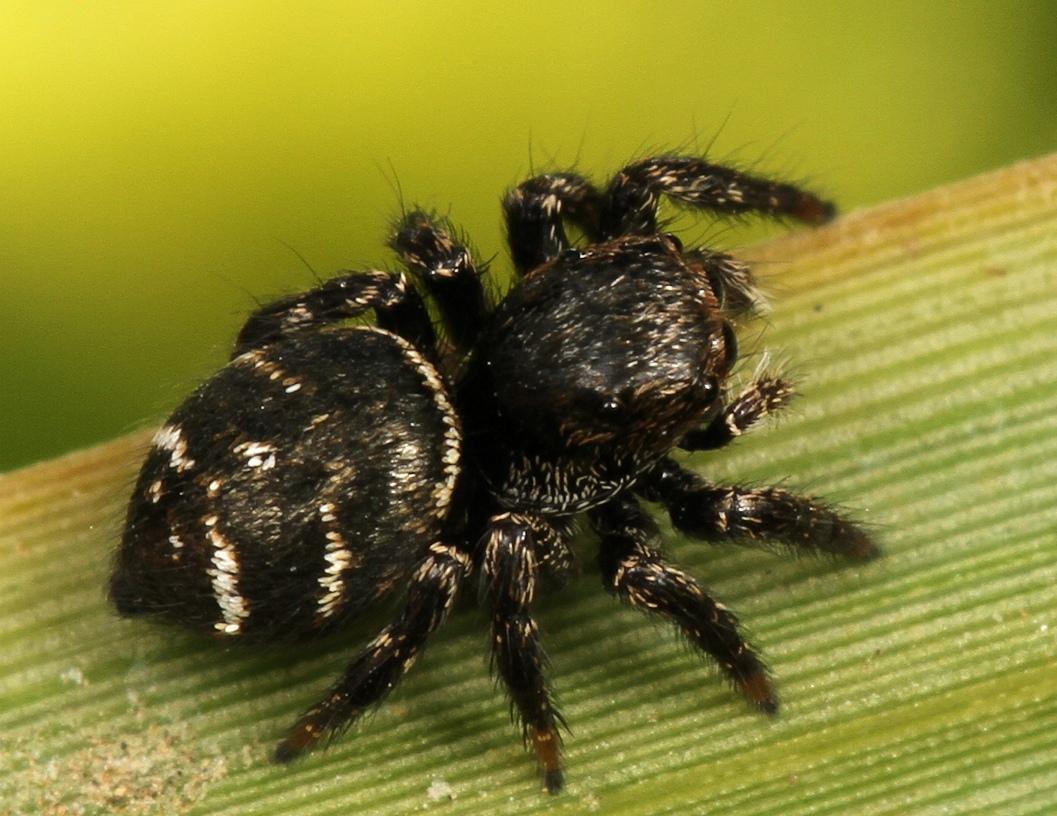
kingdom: Animalia
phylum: Arthropoda
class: Arachnida
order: Araneae
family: Salticidae
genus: Baryphas
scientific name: Baryphas ahenus
